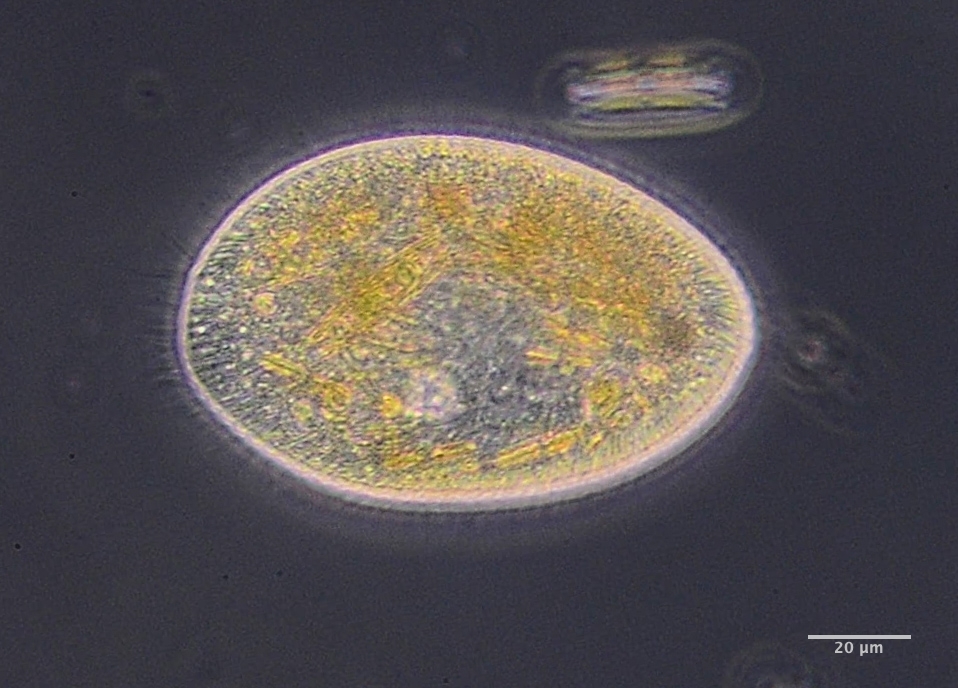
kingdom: Chromista
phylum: Ciliophora
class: Oligohymenophorea
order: Hymenostomatida
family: Frontoniidae
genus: Frontonia
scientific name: Frontonia acuminata
